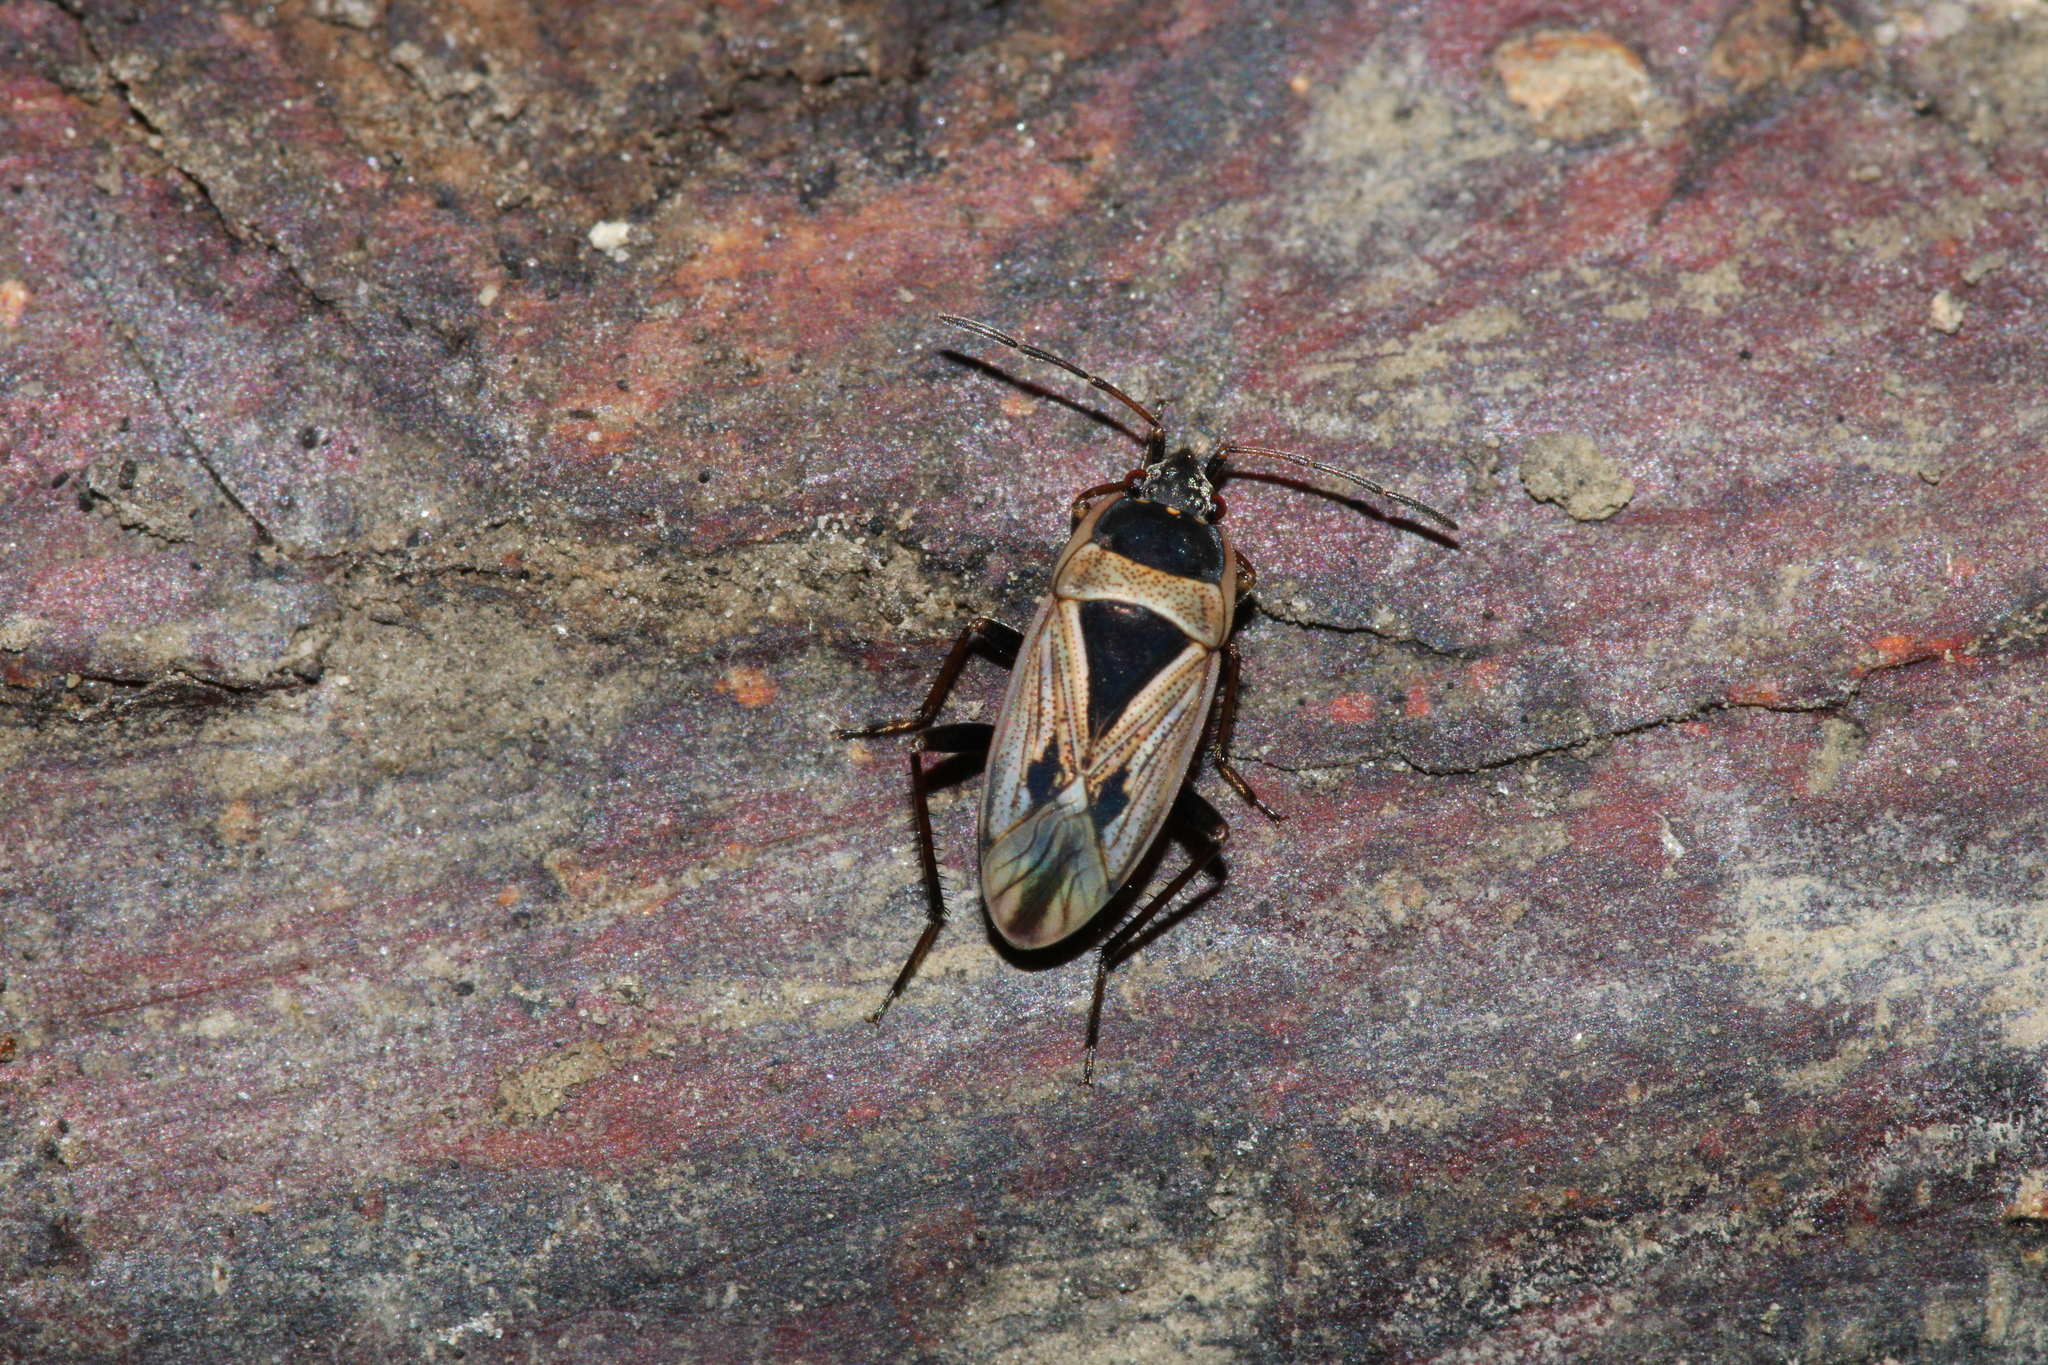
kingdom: Animalia
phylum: Arthropoda
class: Insecta
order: Hemiptera
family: Rhyparochromidae
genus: Xanthochilus
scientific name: Xanthochilus quadratus
